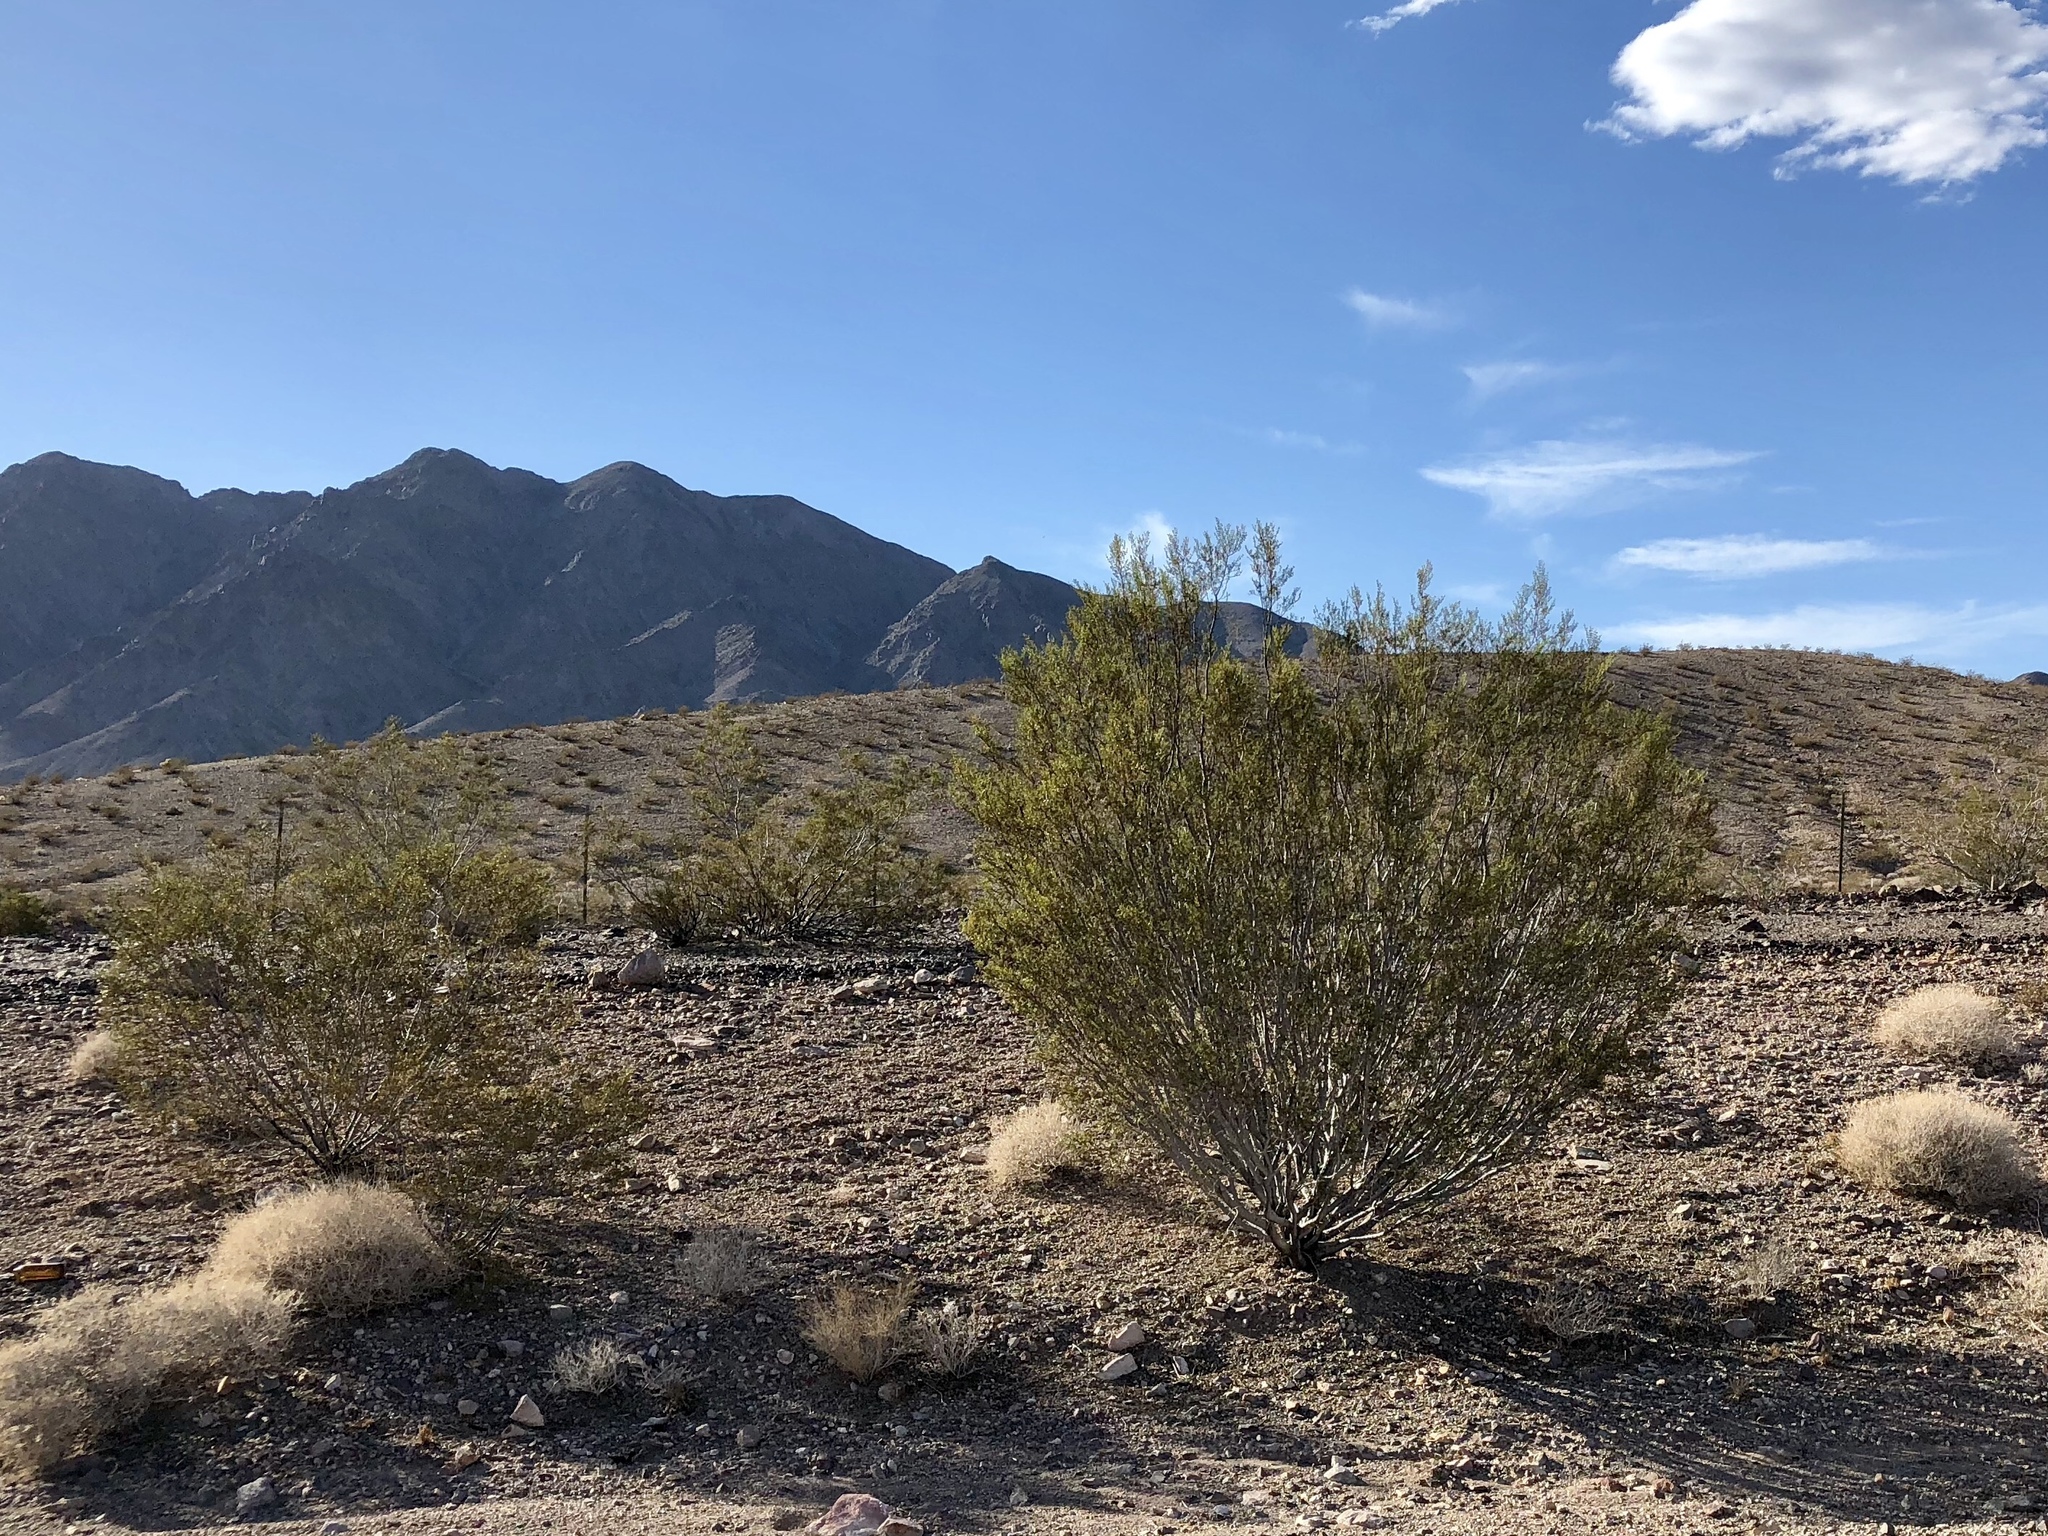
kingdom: Plantae
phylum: Tracheophyta
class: Magnoliopsida
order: Zygophyllales
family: Zygophyllaceae
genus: Larrea
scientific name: Larrea tridentata
